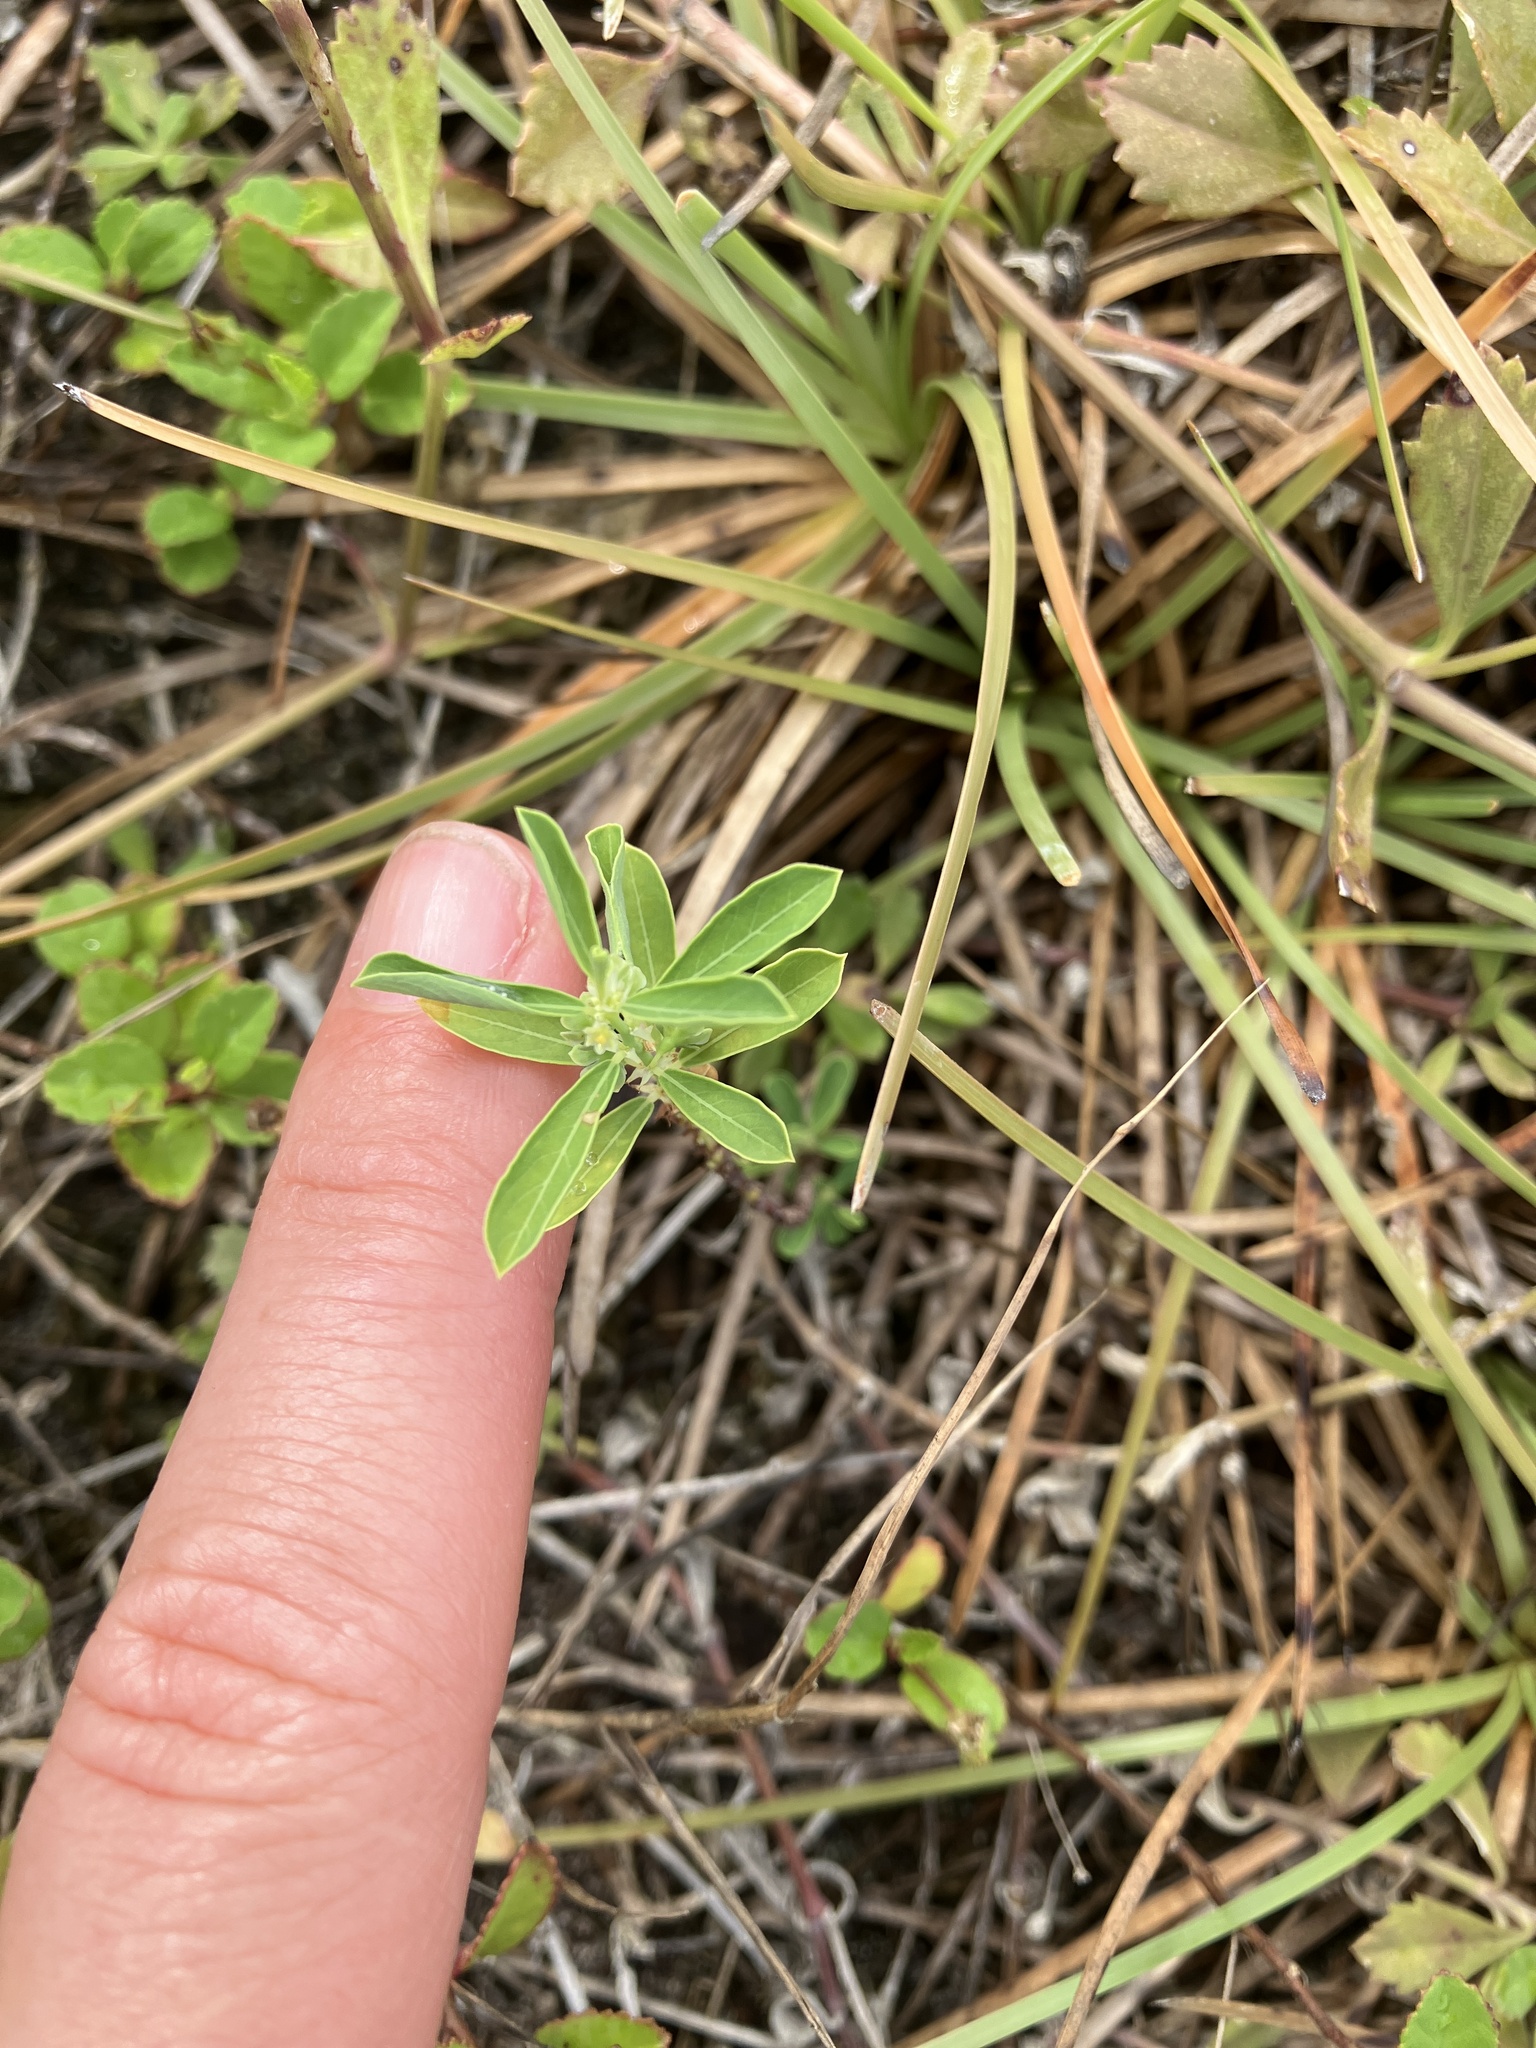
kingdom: Plantae
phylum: Tracheophyta
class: Magnoliopsida
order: Malpighiales
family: Phyllanthaceae
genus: Phyllanthus
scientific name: Phyllanthus polygonoides
